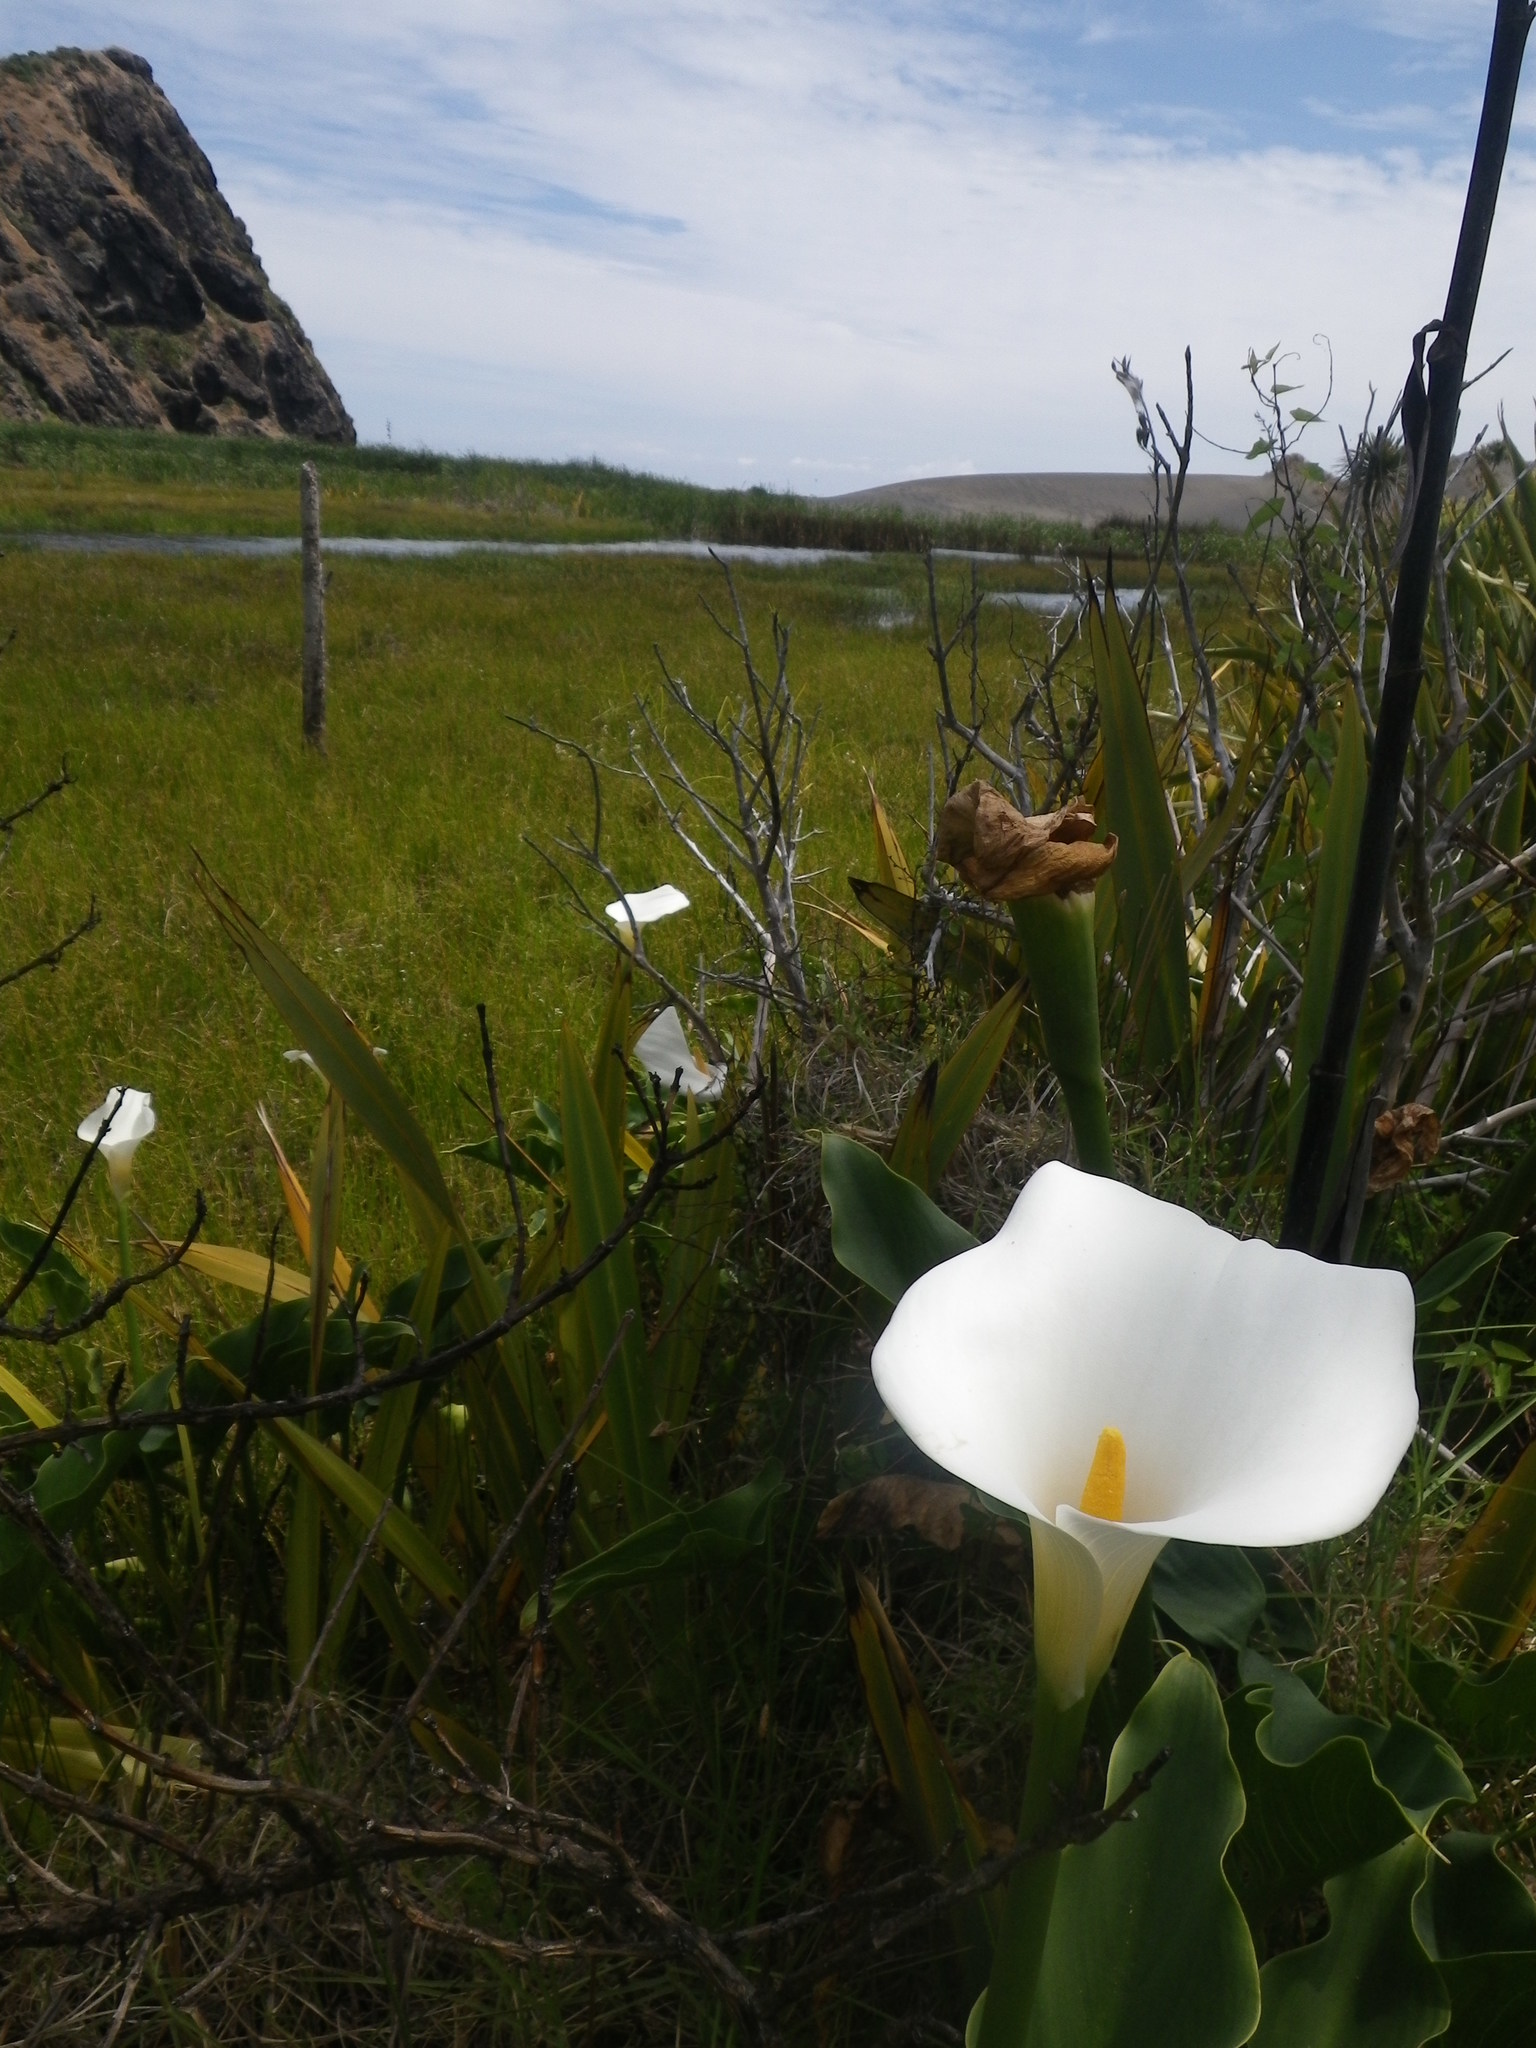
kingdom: Plantae
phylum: Tracheophyta
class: Liliopsida
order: Alismatales
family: Araceae
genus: Zantedeschia
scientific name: Zantedeschia aethiopica
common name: Altar-lily
